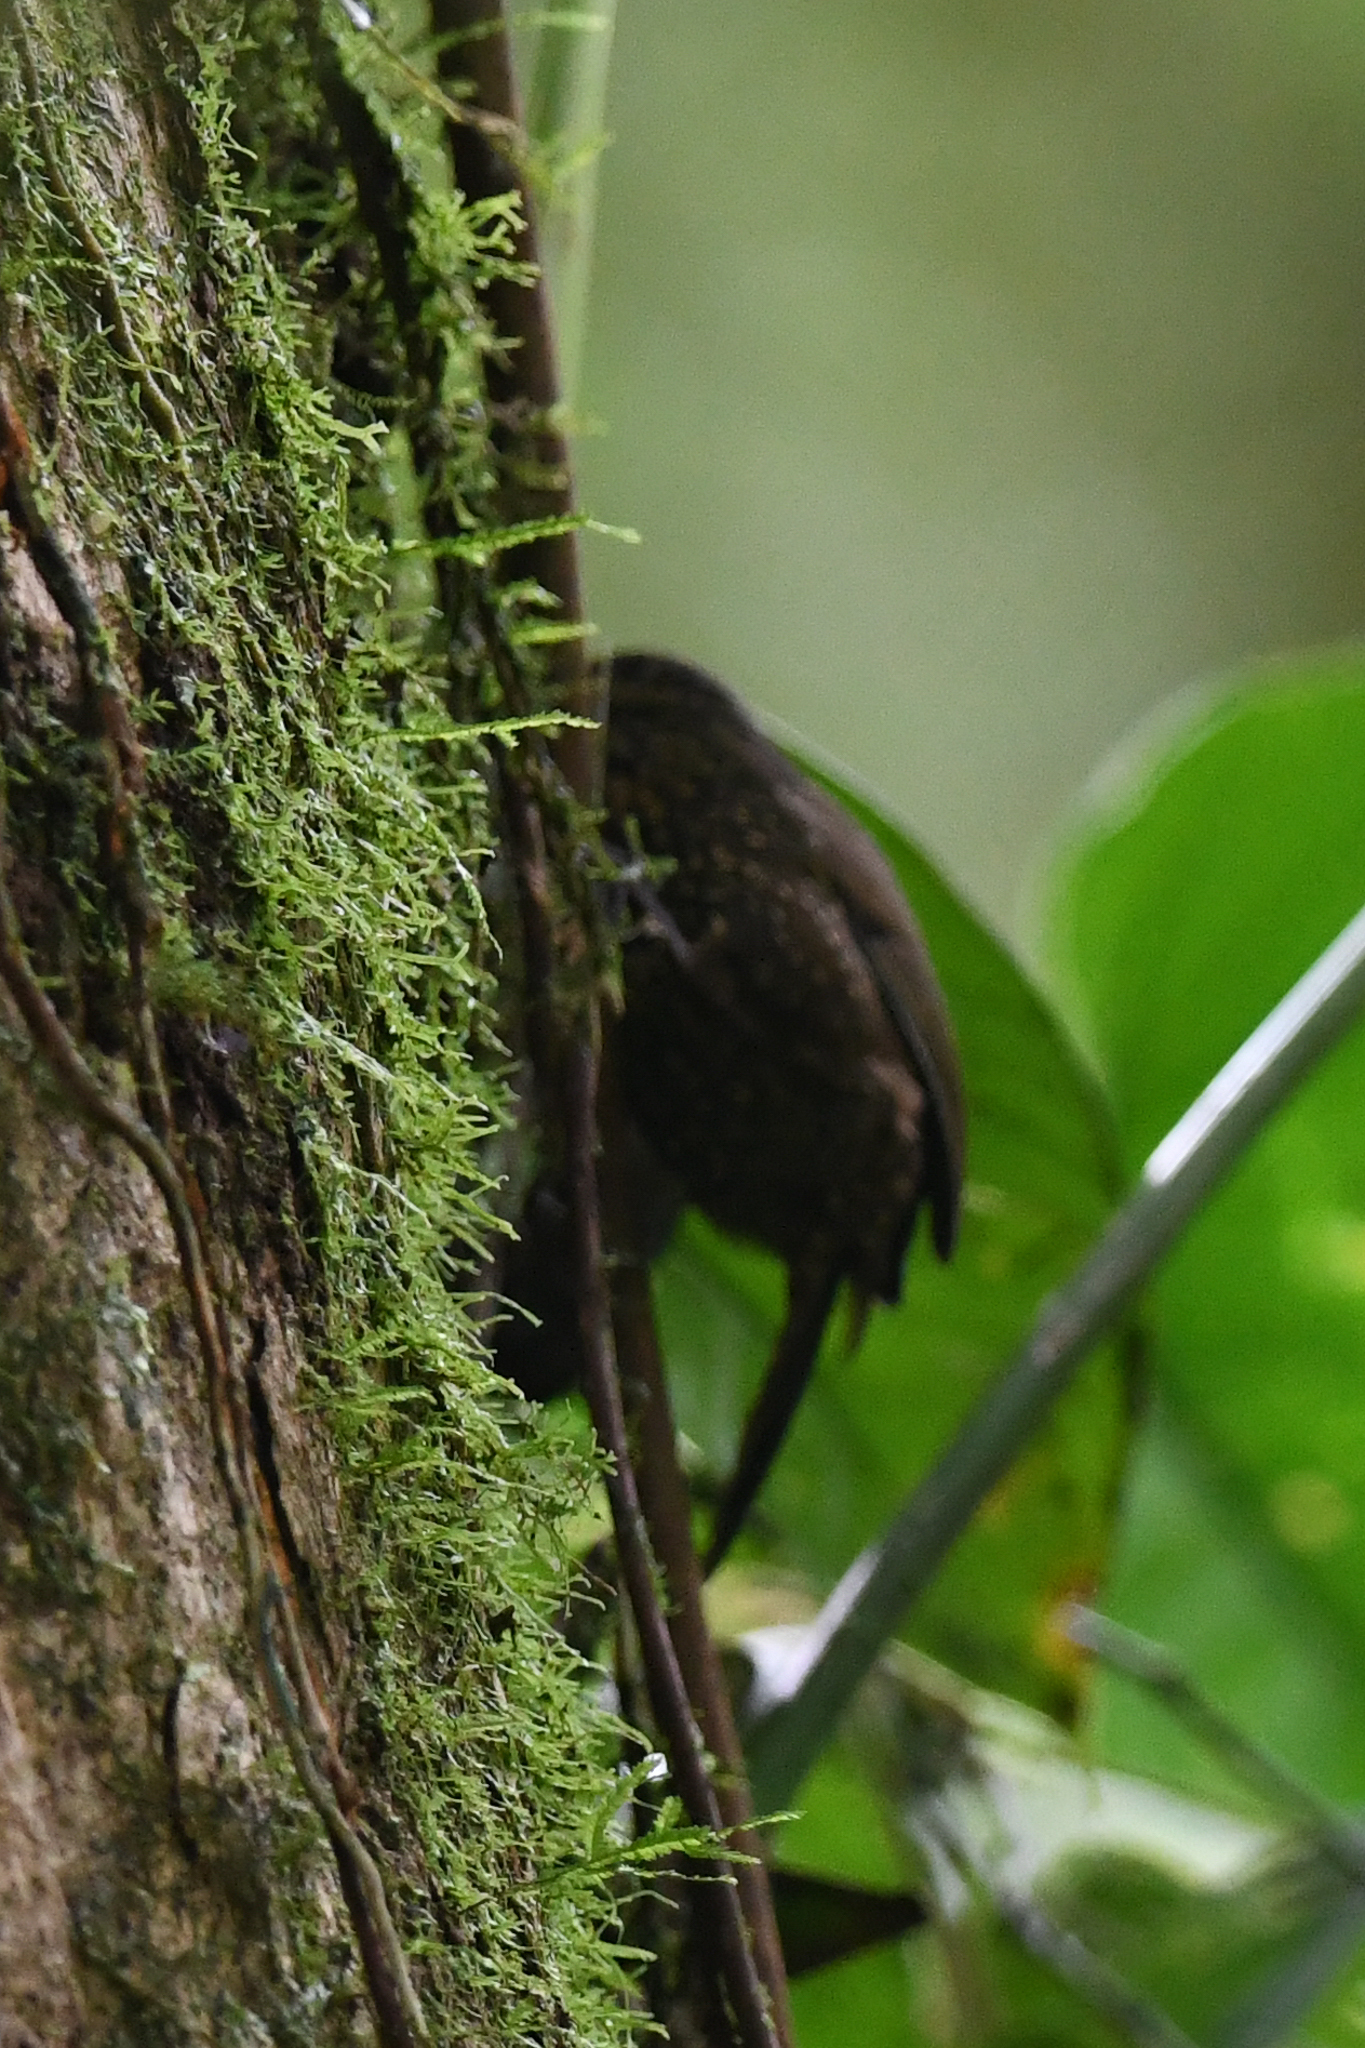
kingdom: Animalia
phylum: Chordata
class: Aves
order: Passeriformes
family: Furnariidae
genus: Premnoplex
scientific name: Premnoplex brunnescens
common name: Spotted barbtail
